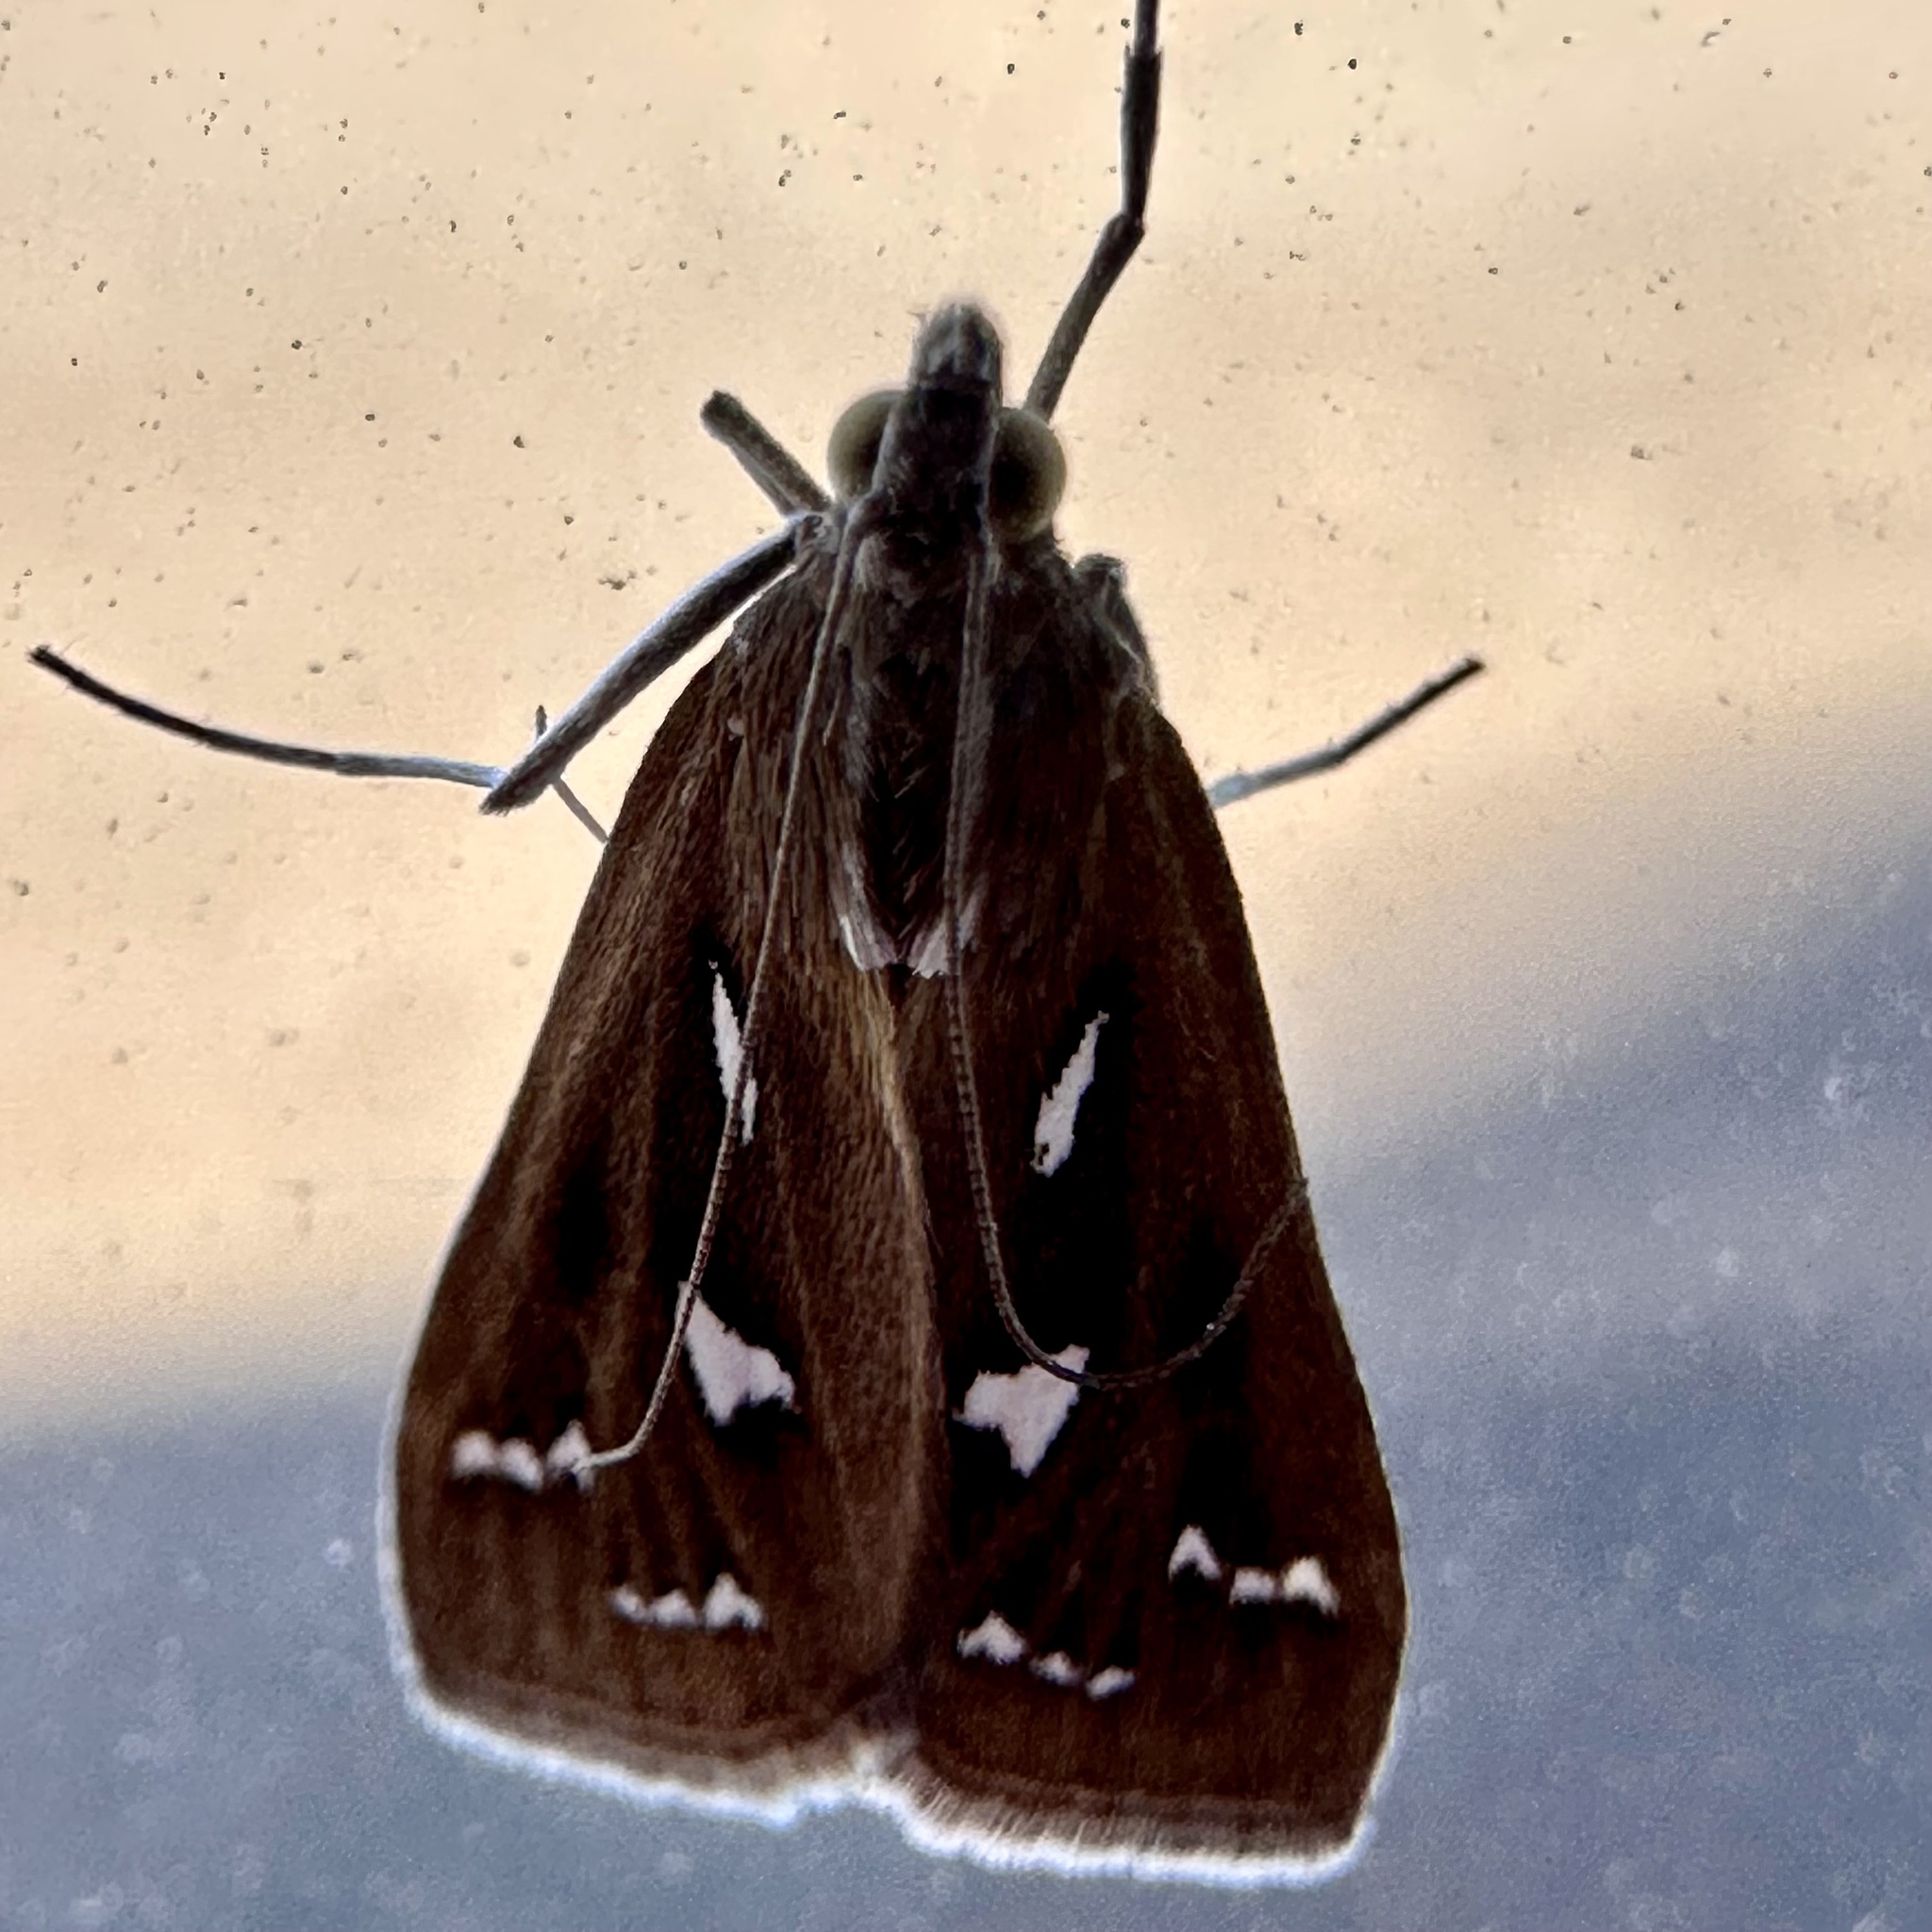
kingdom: Animalia
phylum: Arthropoda
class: Insecta
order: Lepidoptera
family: Crambidae
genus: Diastictis
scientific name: Diastictis fracturalis
